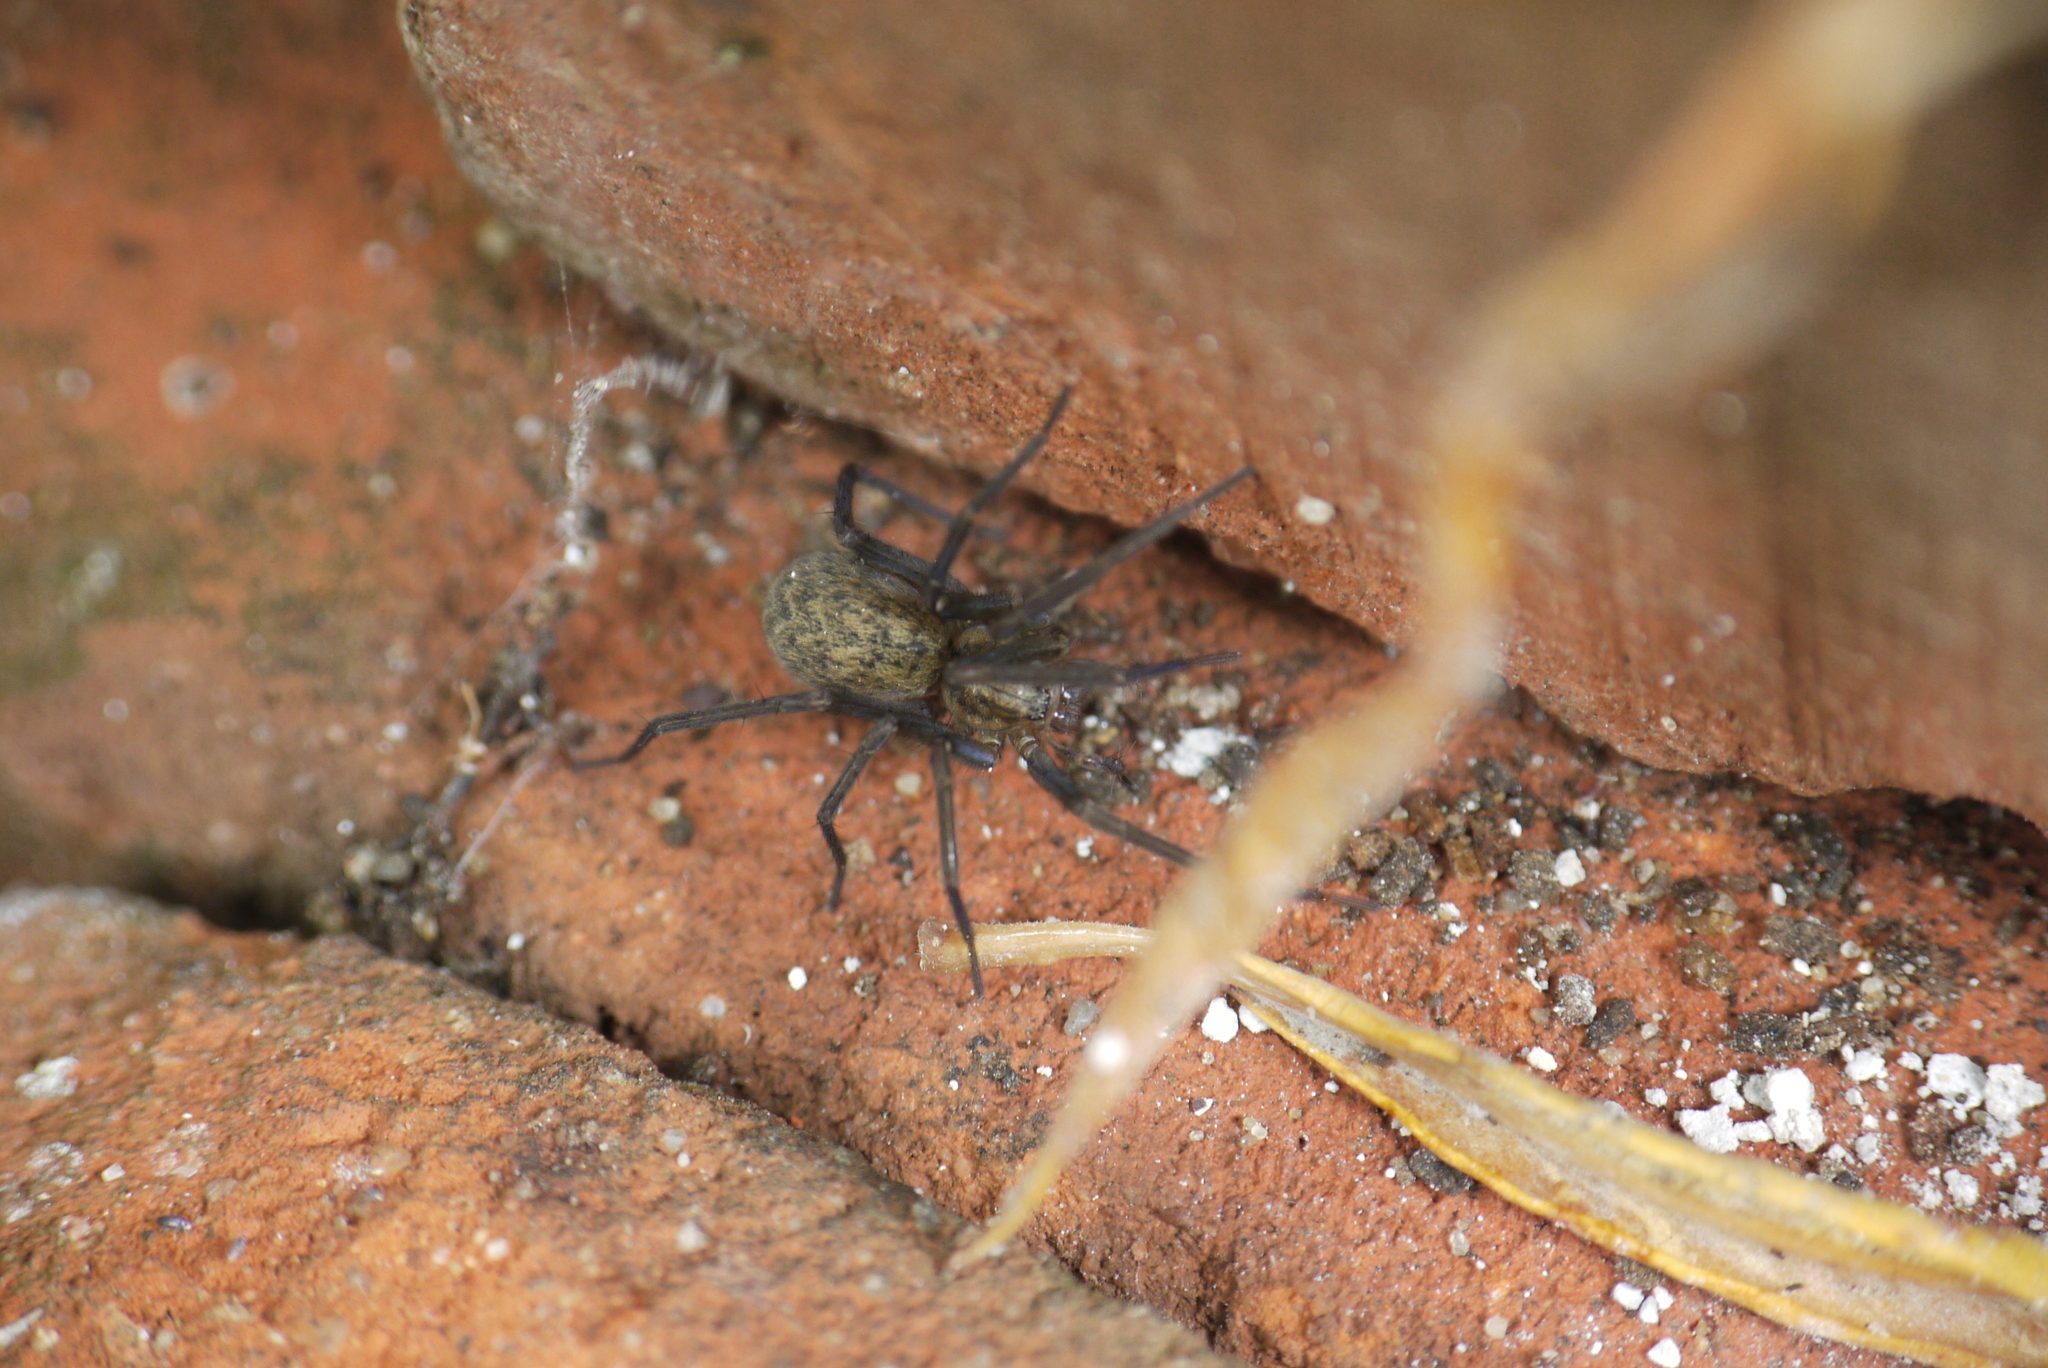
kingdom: Animalia
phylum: Arthropoda
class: Arachnida
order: Araneae
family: Agelenidae
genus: Eratigena
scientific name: Eratigena atrica
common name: Giant house spider
